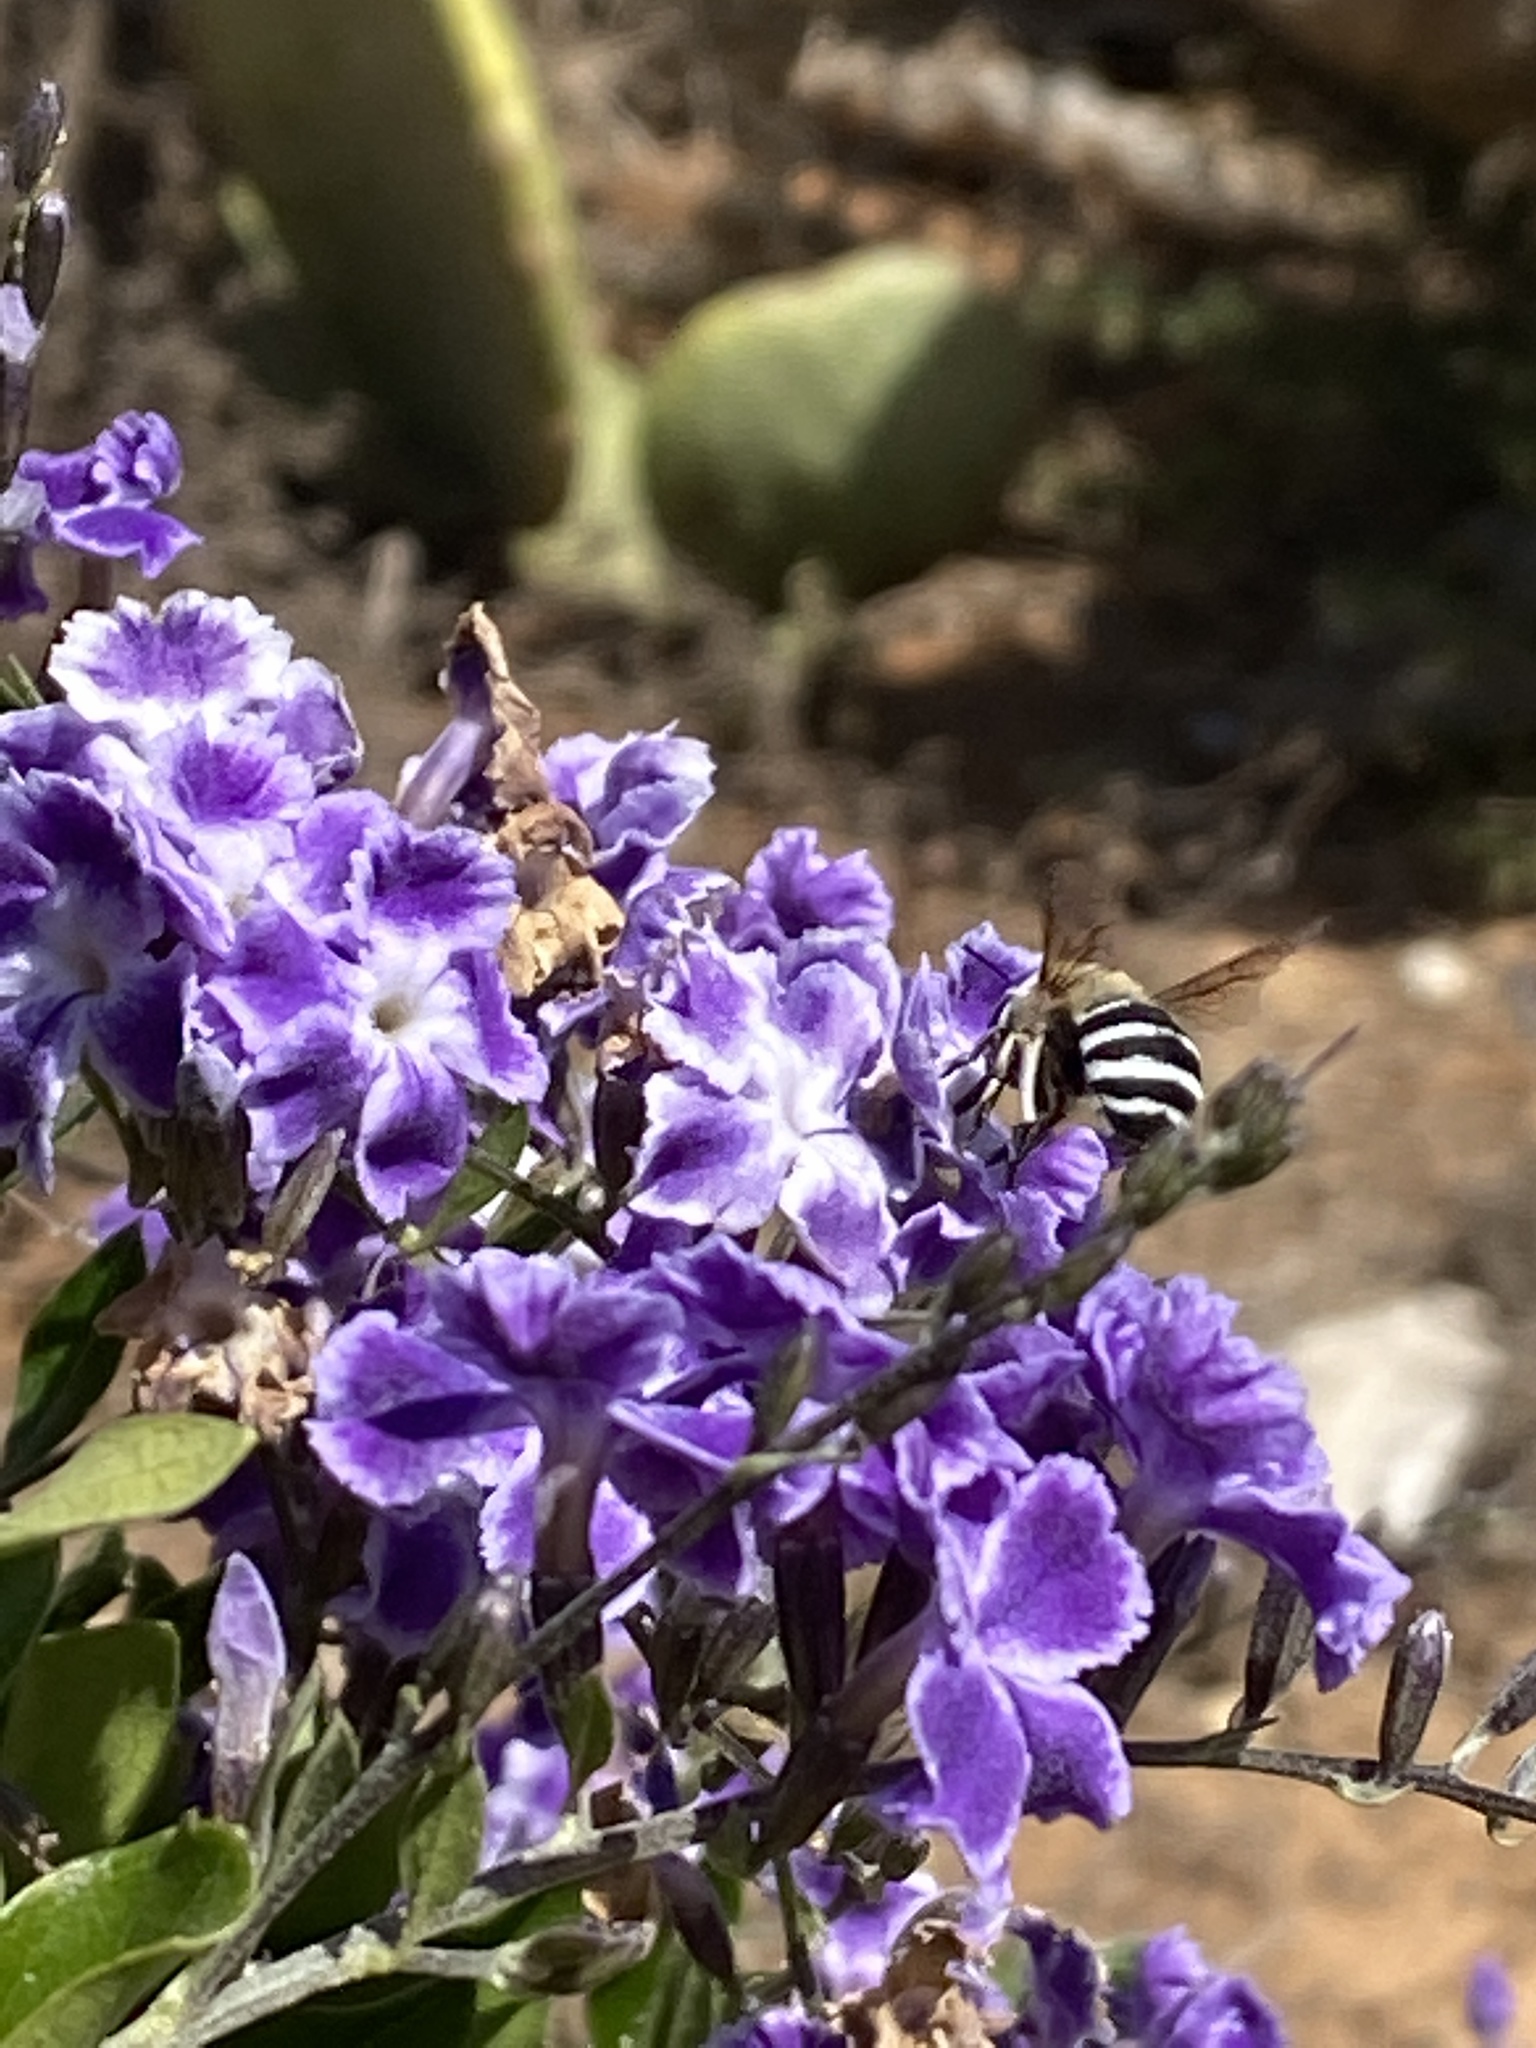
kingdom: Animalia
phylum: Arthropoda
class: Insecta
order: Hymenoptera
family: Apidae
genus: Amegilla
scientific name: Amegilla quadrifasciata
